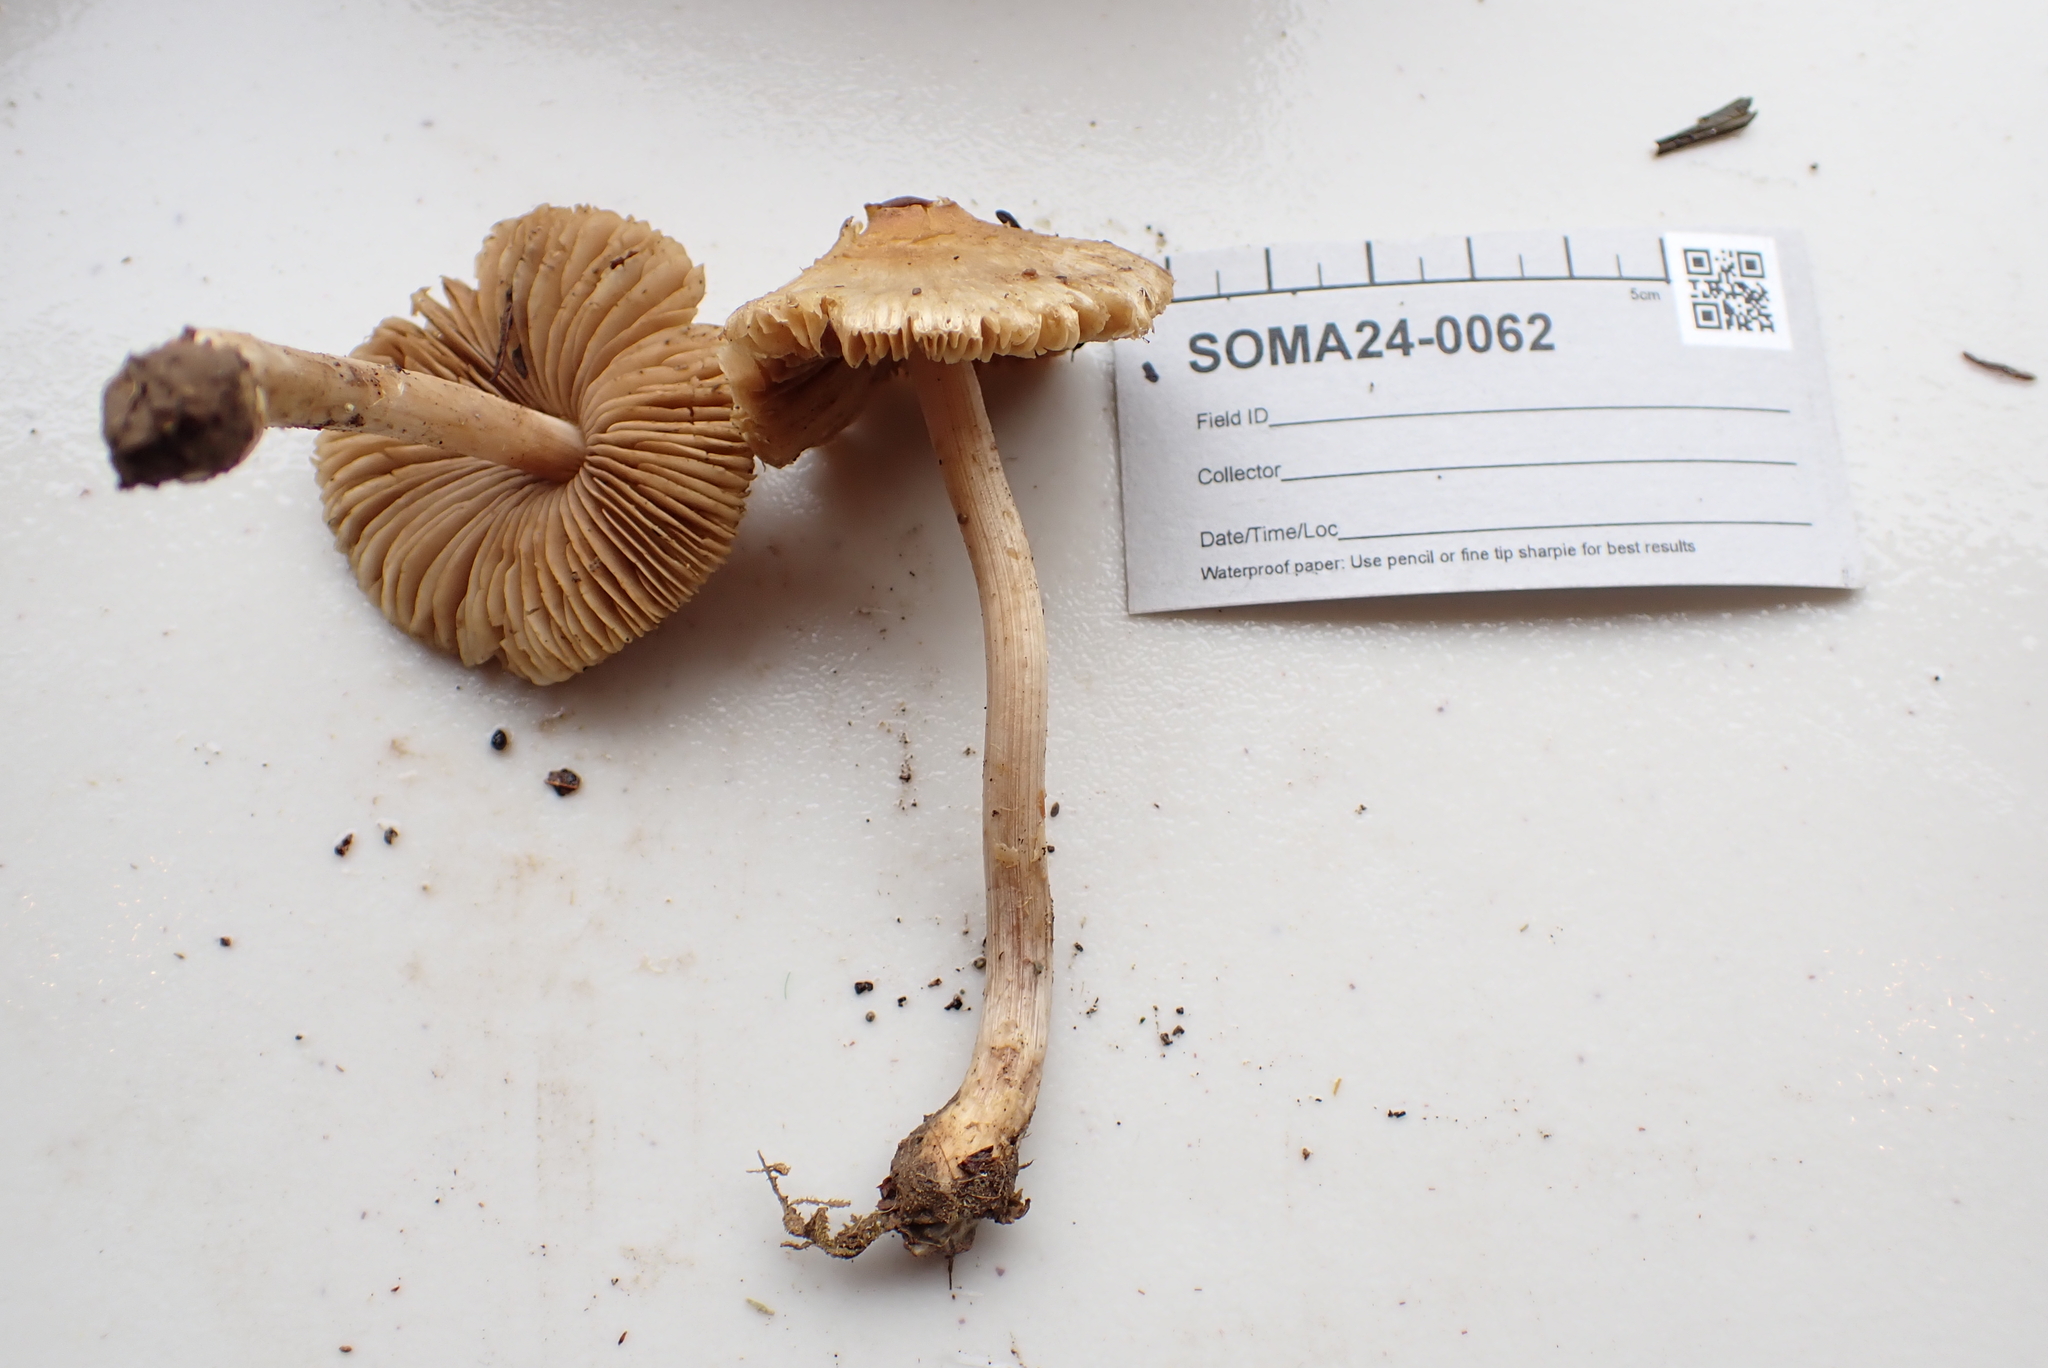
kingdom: Fungi
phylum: Basidiomycota
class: Agaricomycetes
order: Agaricales
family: Inocybaceae
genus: Inocybe
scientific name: Inocybe sindonia
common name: Beige fibrecap
